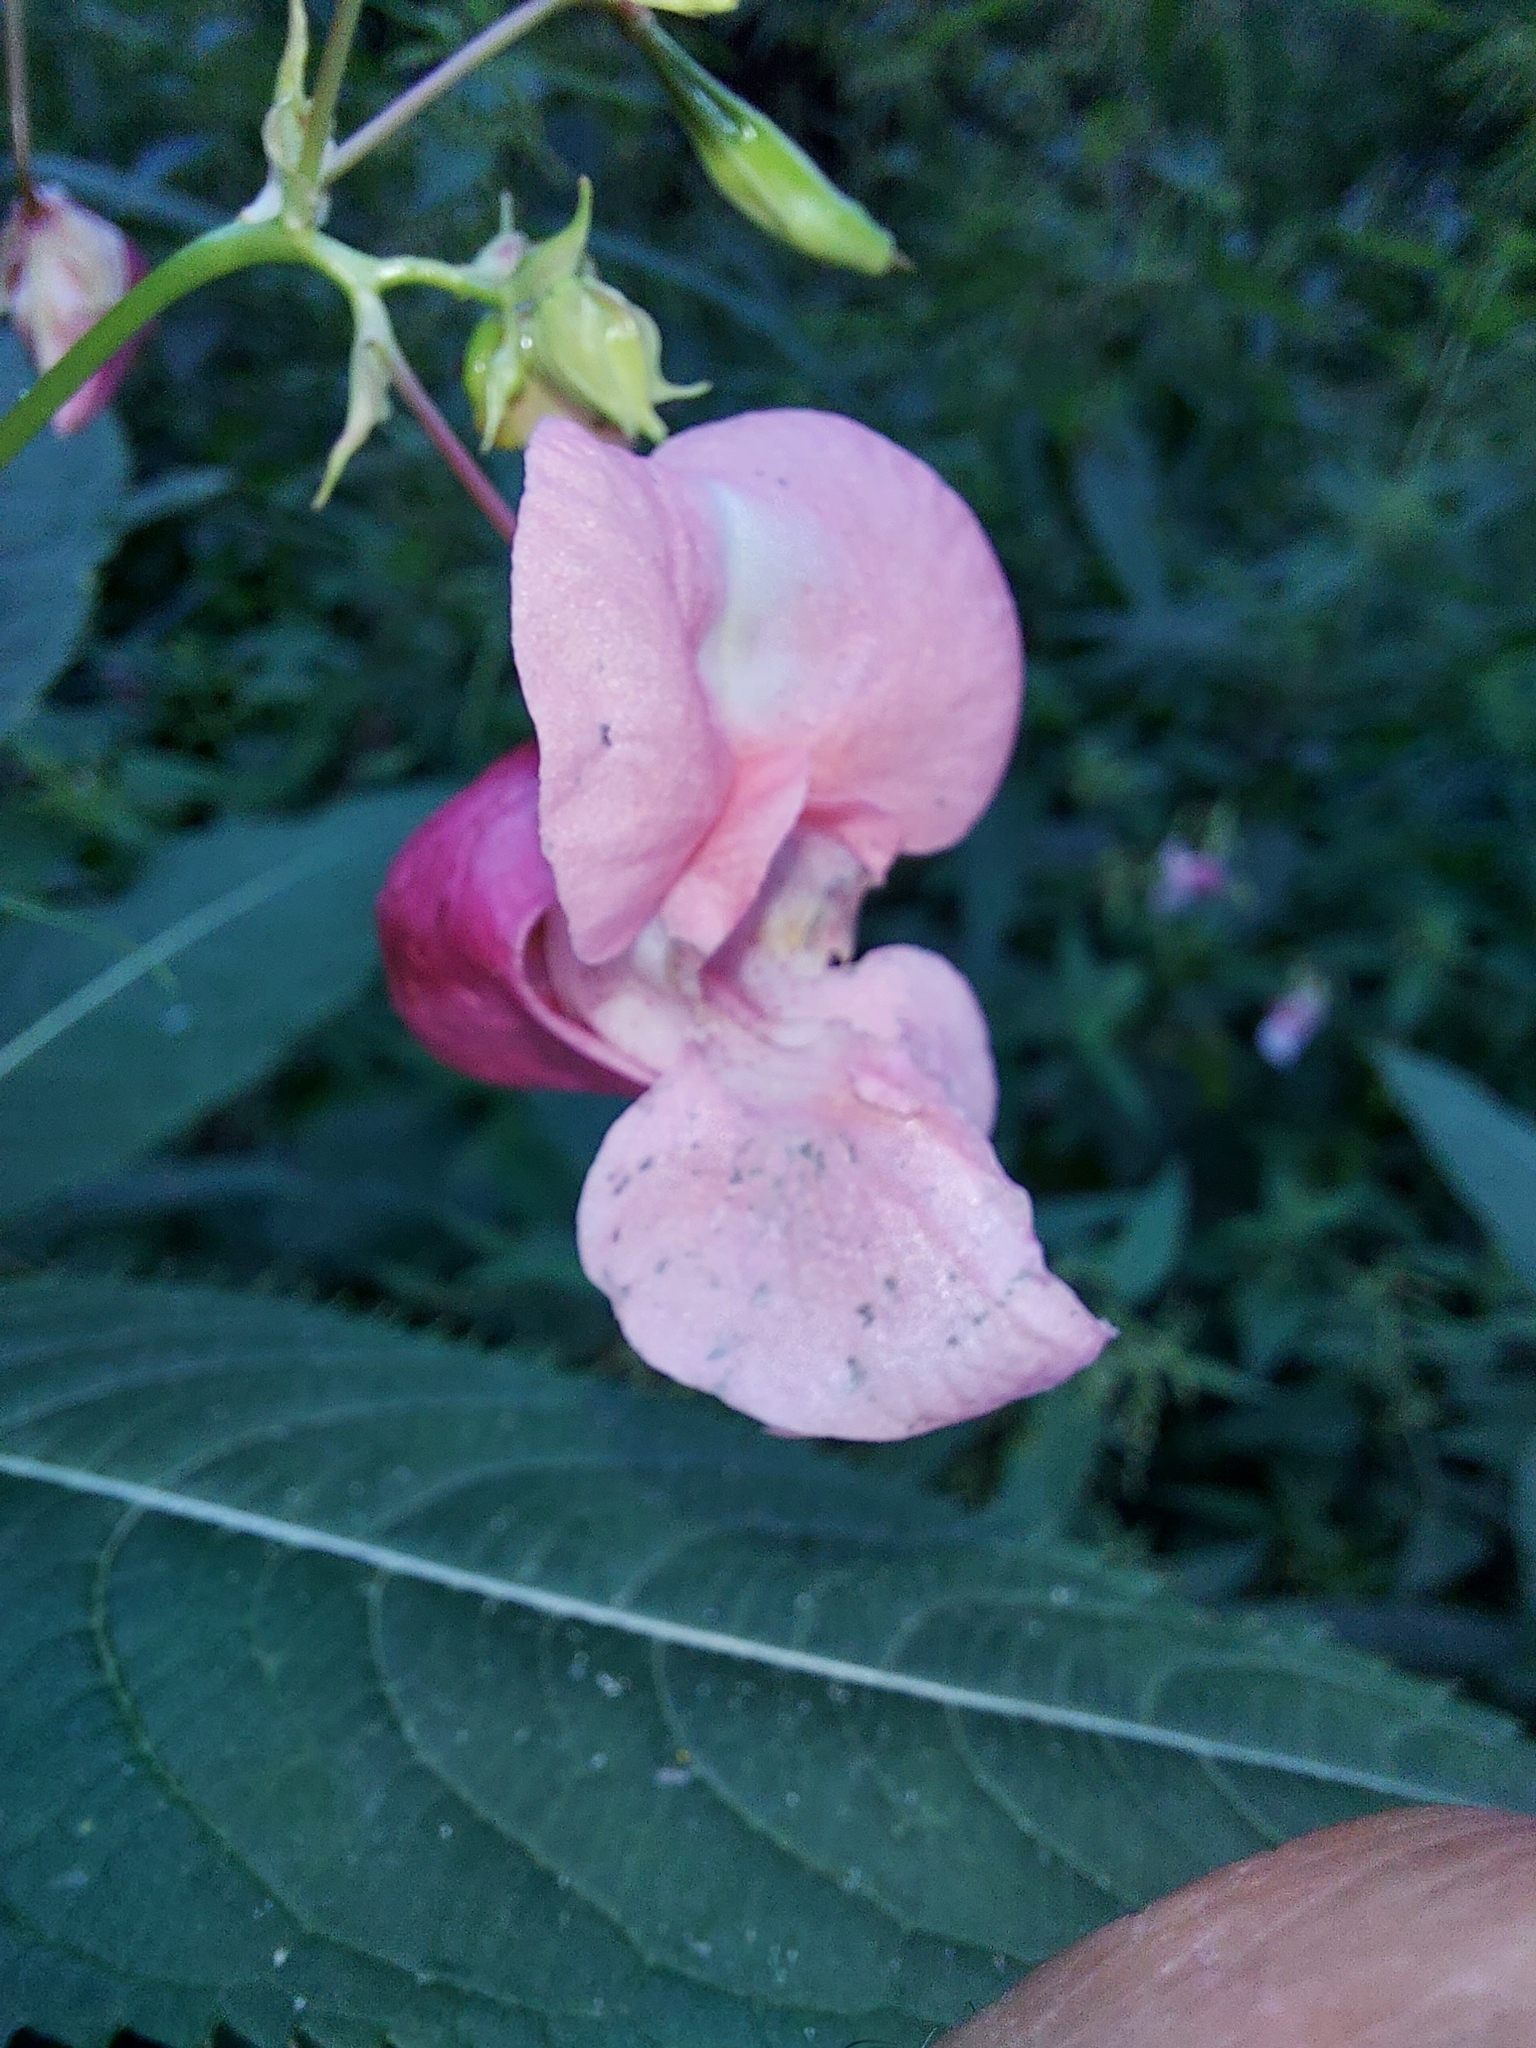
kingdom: Plantae
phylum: Tracheophyta
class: Magnoliopsida
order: Ericales
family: Balsaminaceae
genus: Impatiens
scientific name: Impatiens glandulifera
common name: Himalayan balsam
